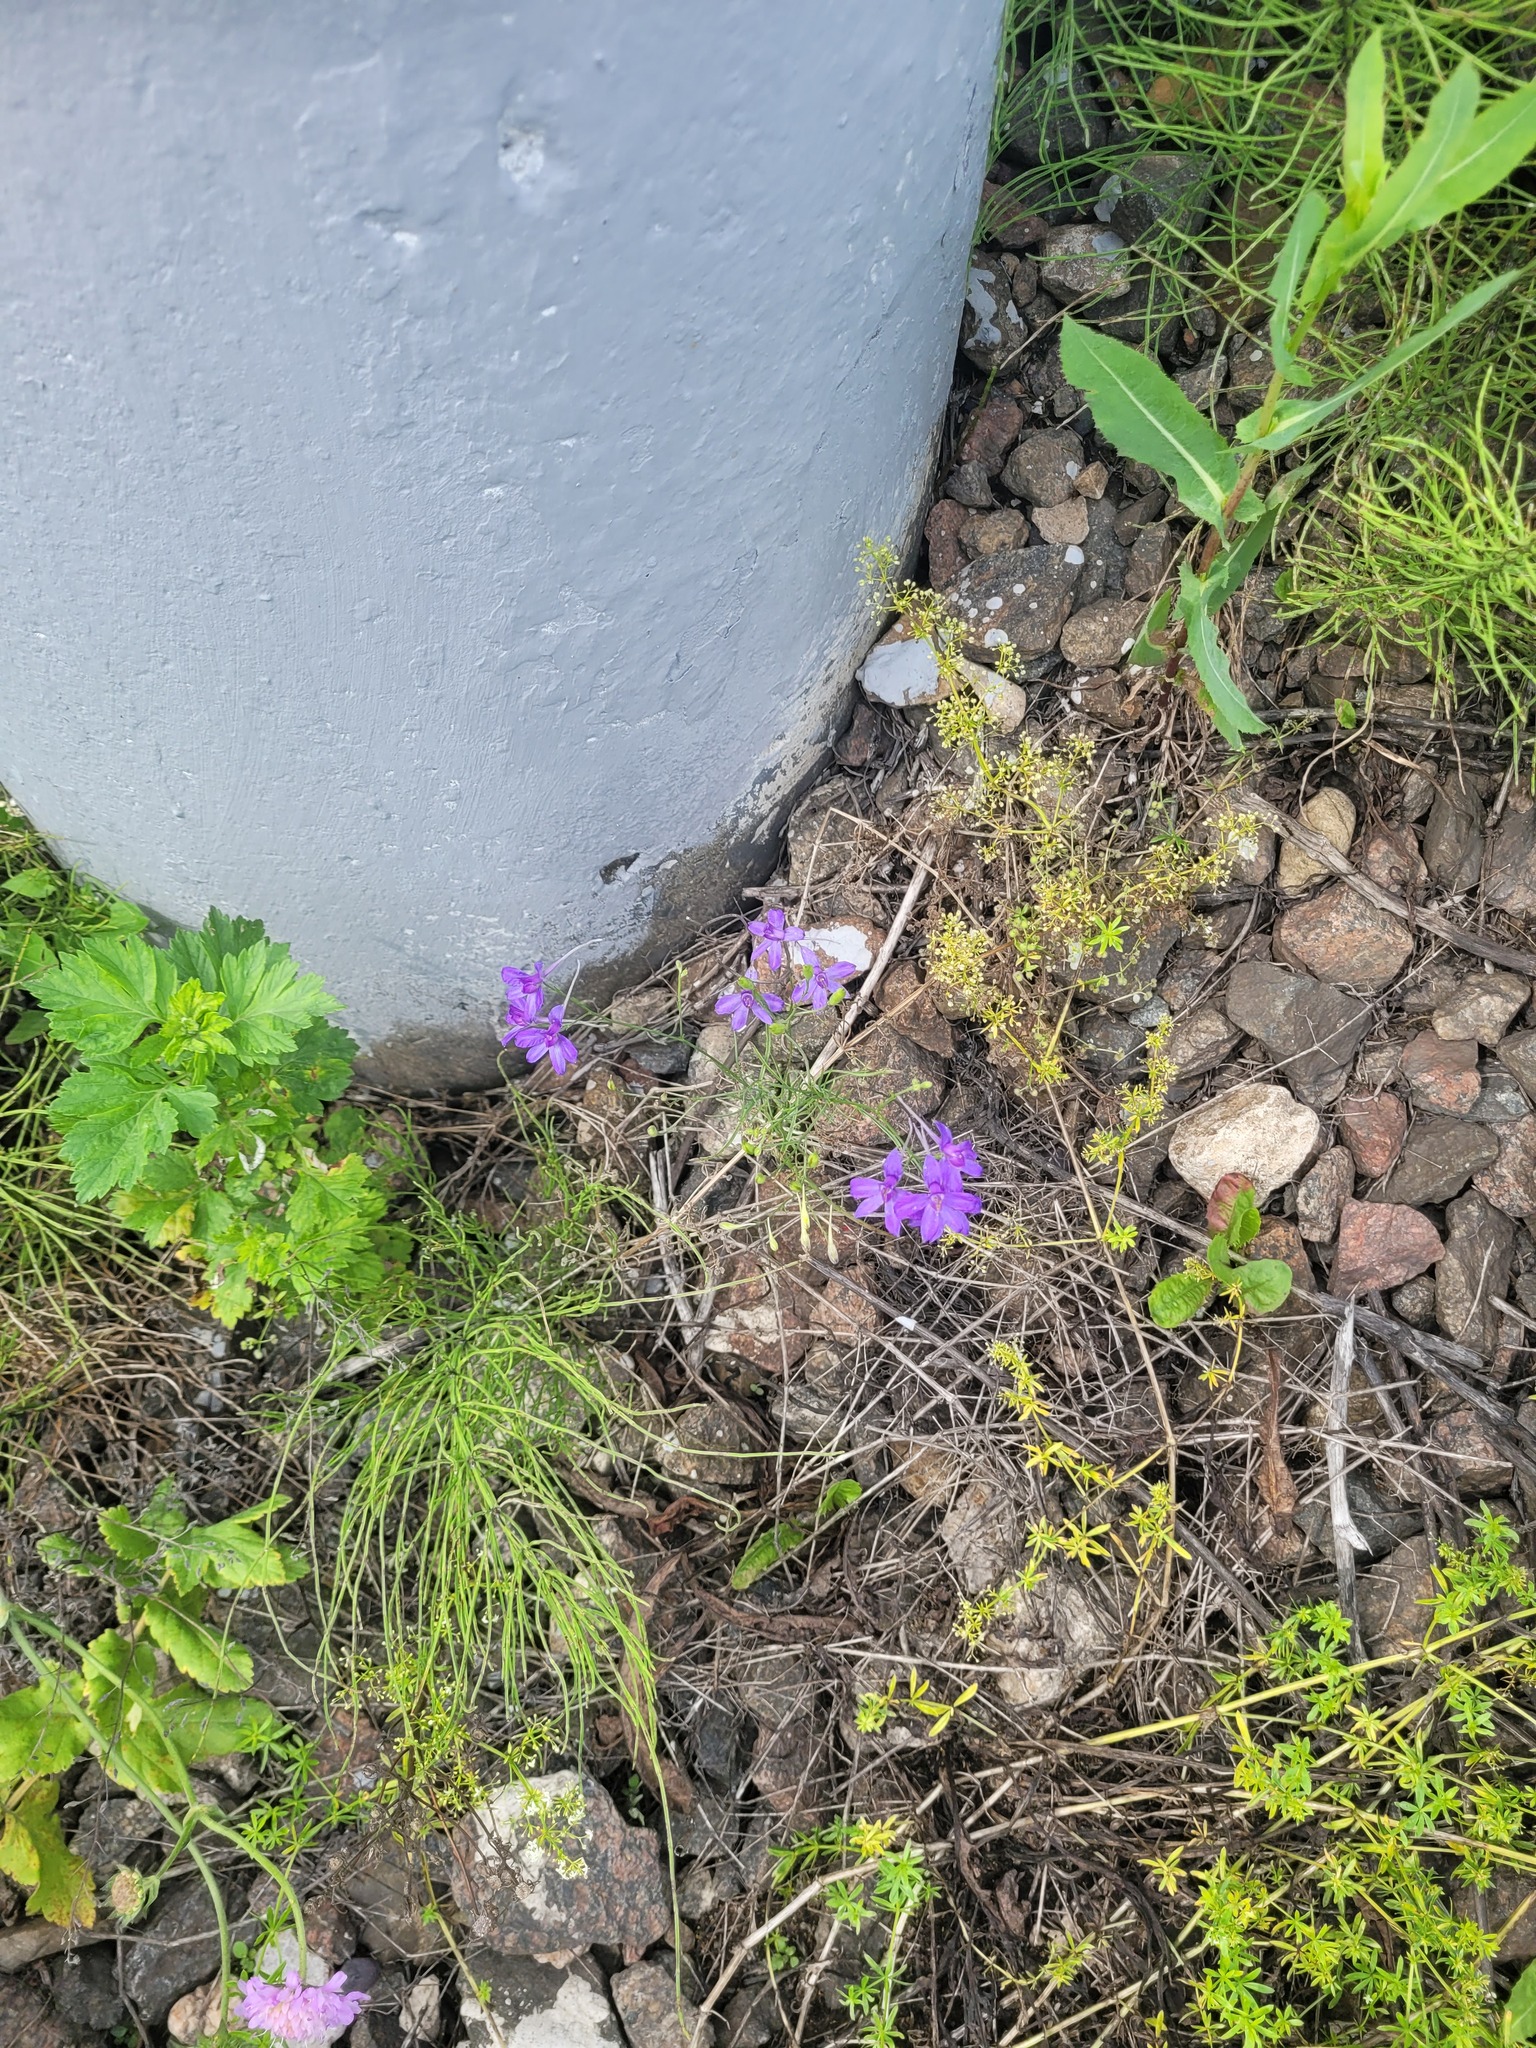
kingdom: Plantae
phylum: Tracheophyta
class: Magnoliopsida
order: Ranunculales
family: Ranunculaceae
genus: Delphinium
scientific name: Delphinium consolida
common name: Branching larkspur
